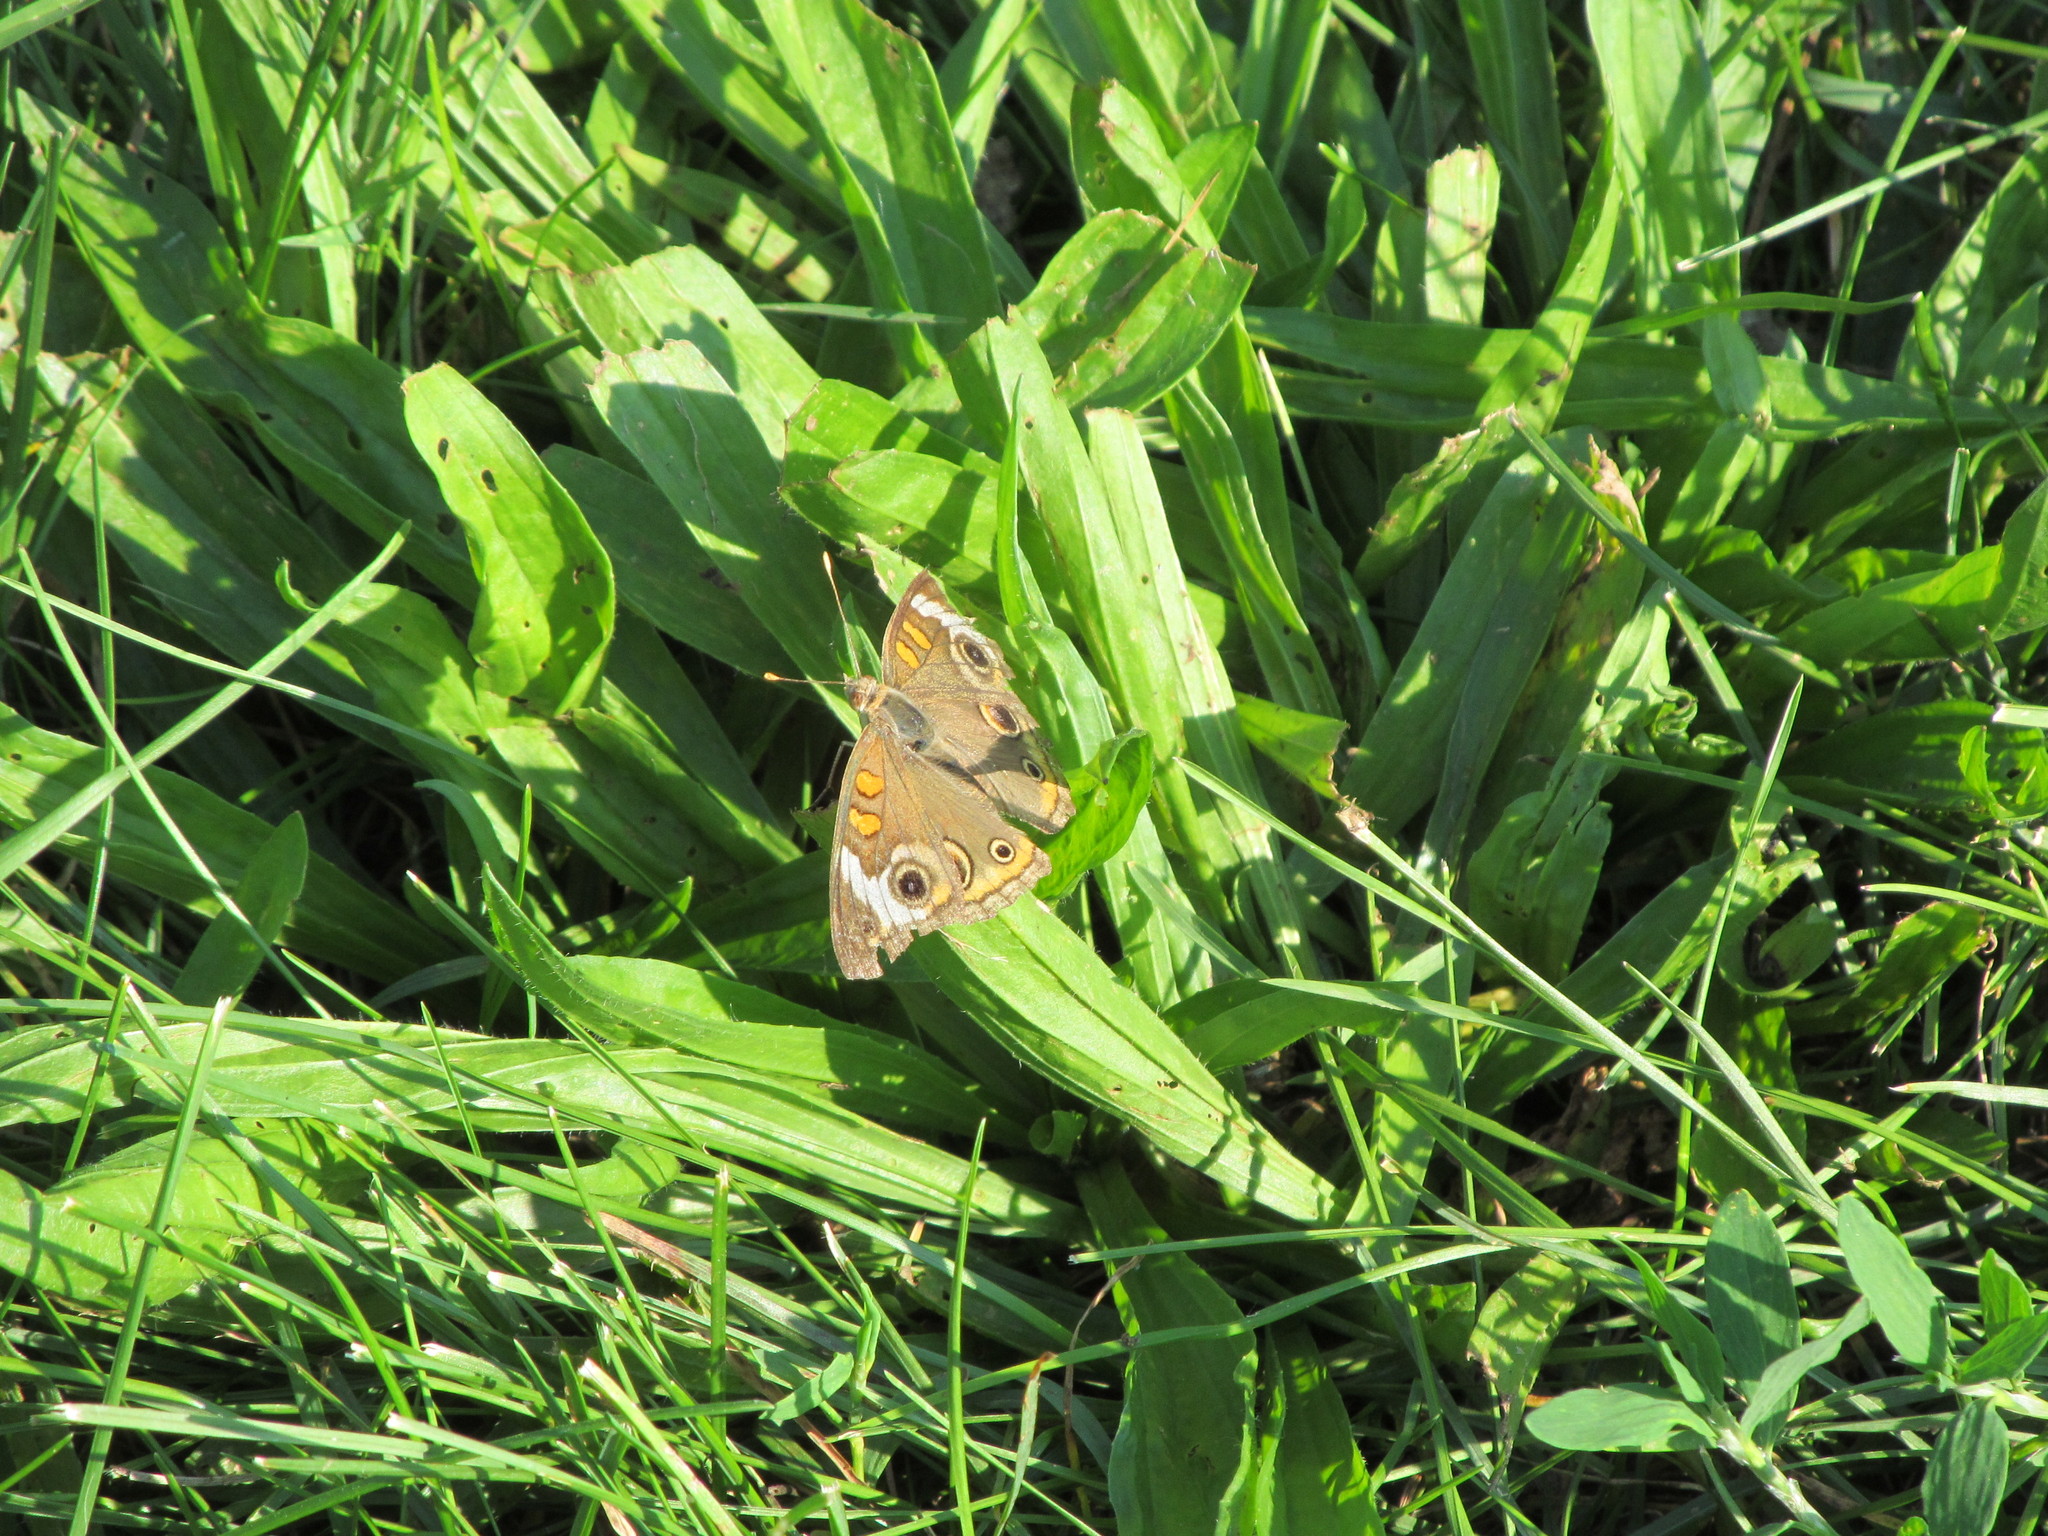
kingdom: Animalia
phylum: Arthropoda
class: Insecta
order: Lepidoptera
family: Nymphalidae
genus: Junonia
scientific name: Junonia coenia
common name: Common buckeye
